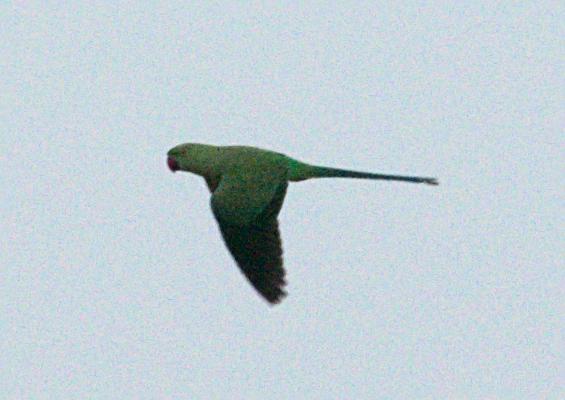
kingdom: Animalia
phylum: Chordata
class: Aves
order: Psittaciformes
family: Psittacidae
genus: Psittacula
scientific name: Psittacula krameri
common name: Rose-ringed parakeet
